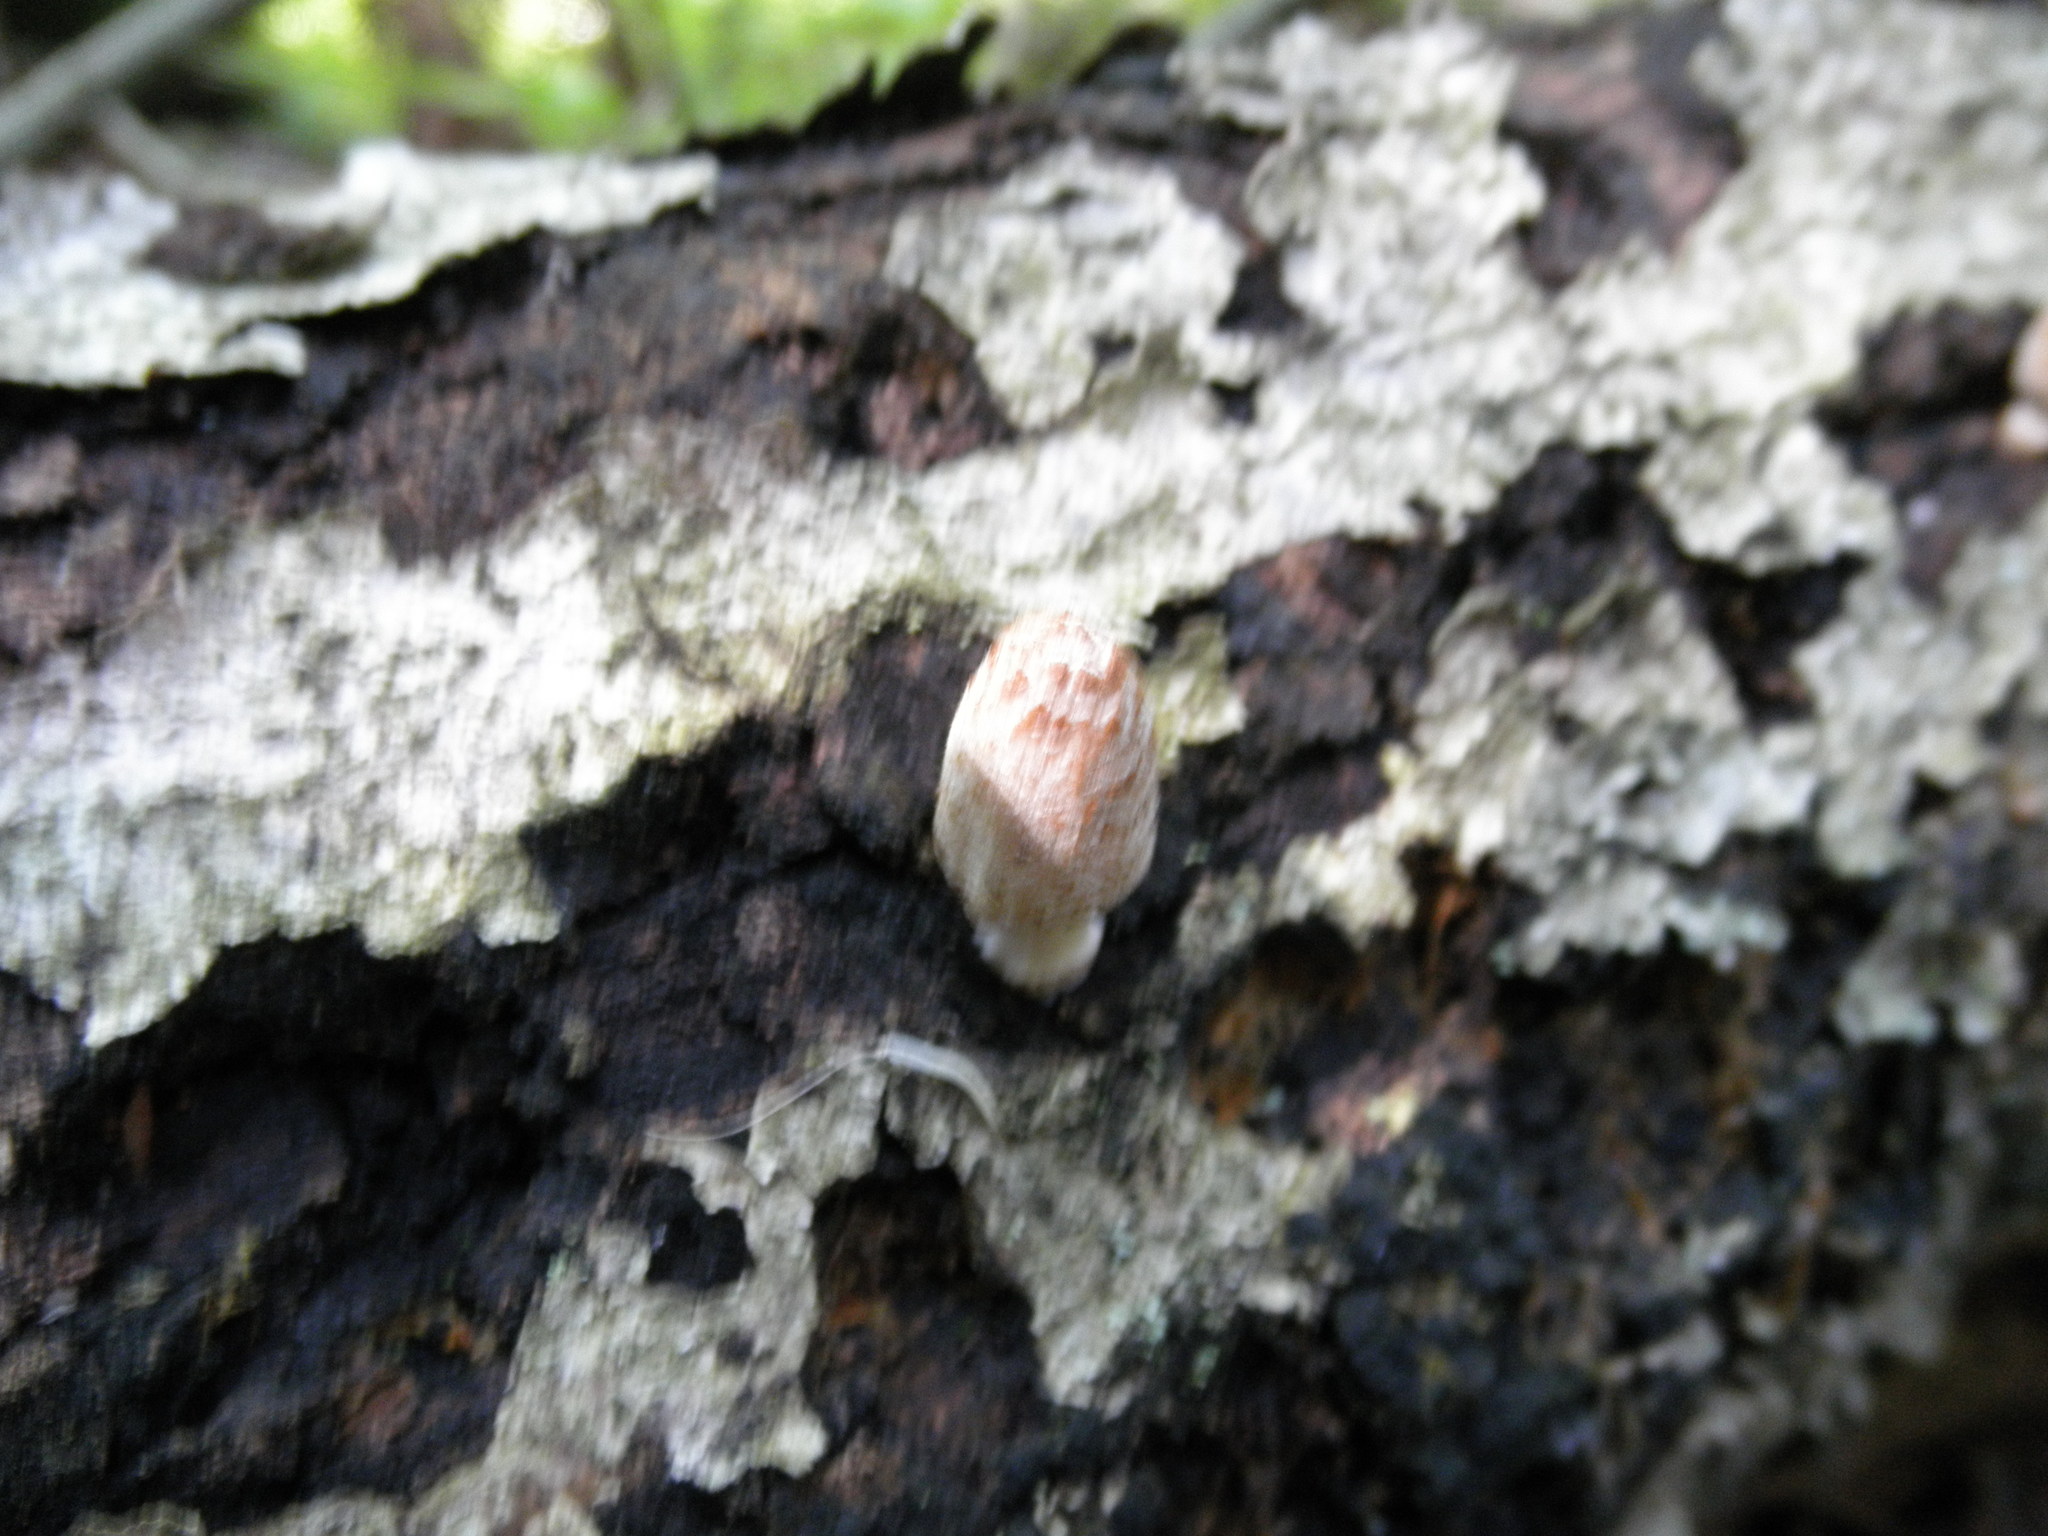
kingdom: Fungi
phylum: Basidiomycota
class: Agaricomycetes
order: Agaricales
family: Psathyrellaceae
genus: Coprinopsis
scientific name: Coprinopsis variegata
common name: Scaly ink cap
